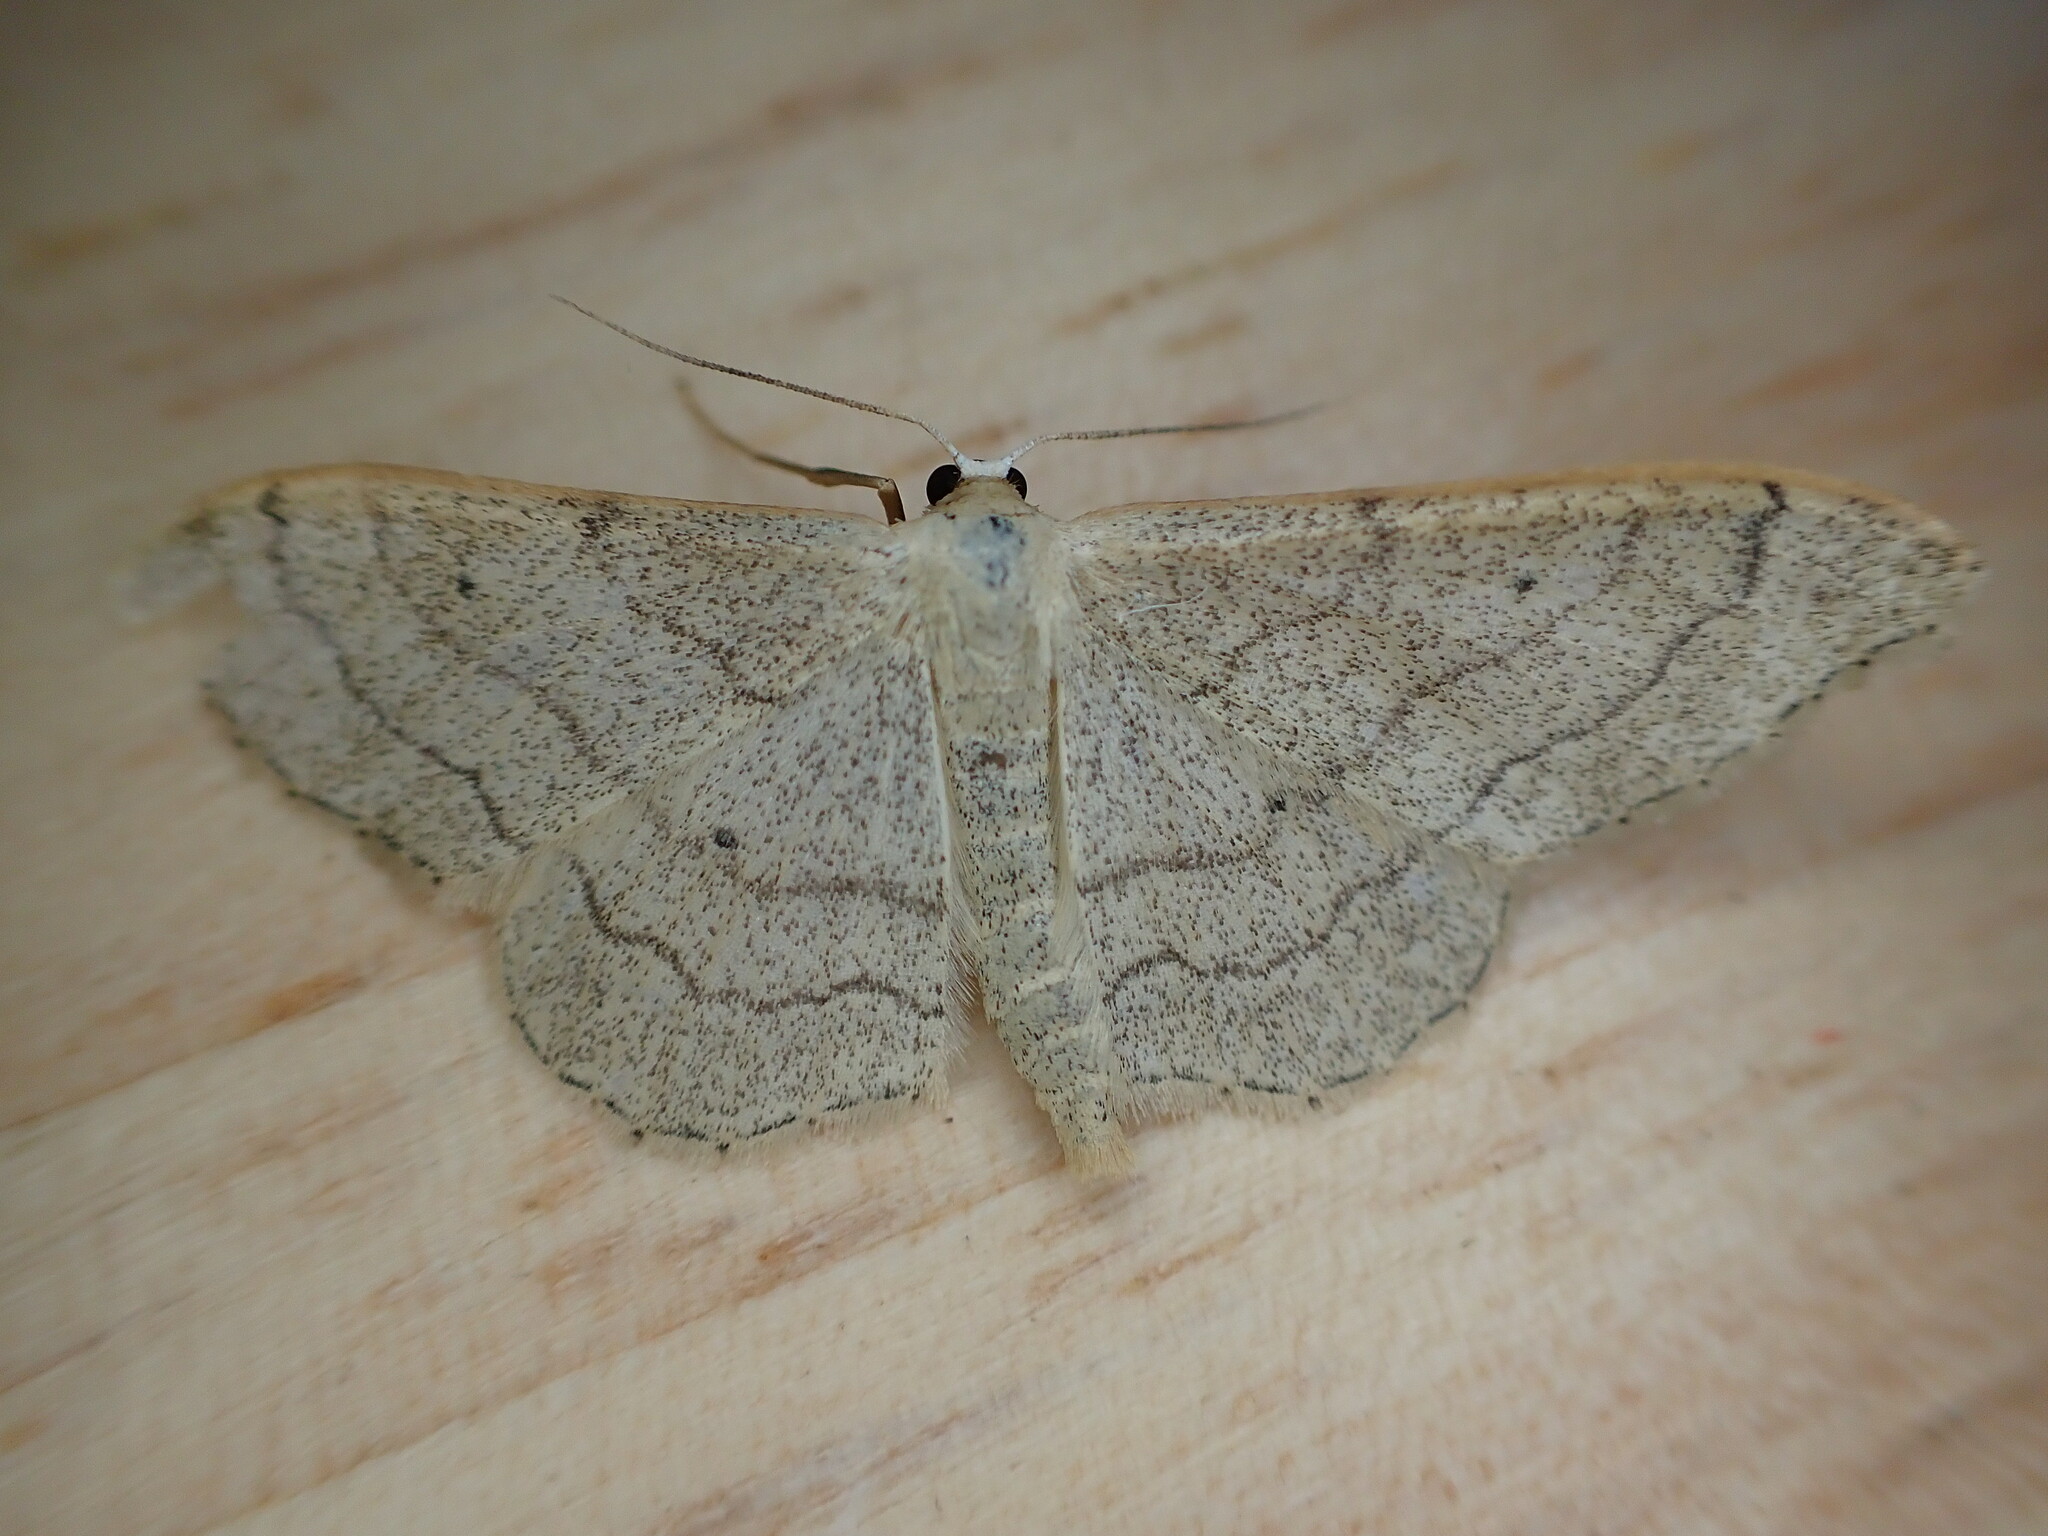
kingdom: Animalia
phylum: Arthropoda
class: Insecta
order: Lepidoptera
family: Geometridae
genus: Idaea
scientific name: Idaea aversata
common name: Riband wave
